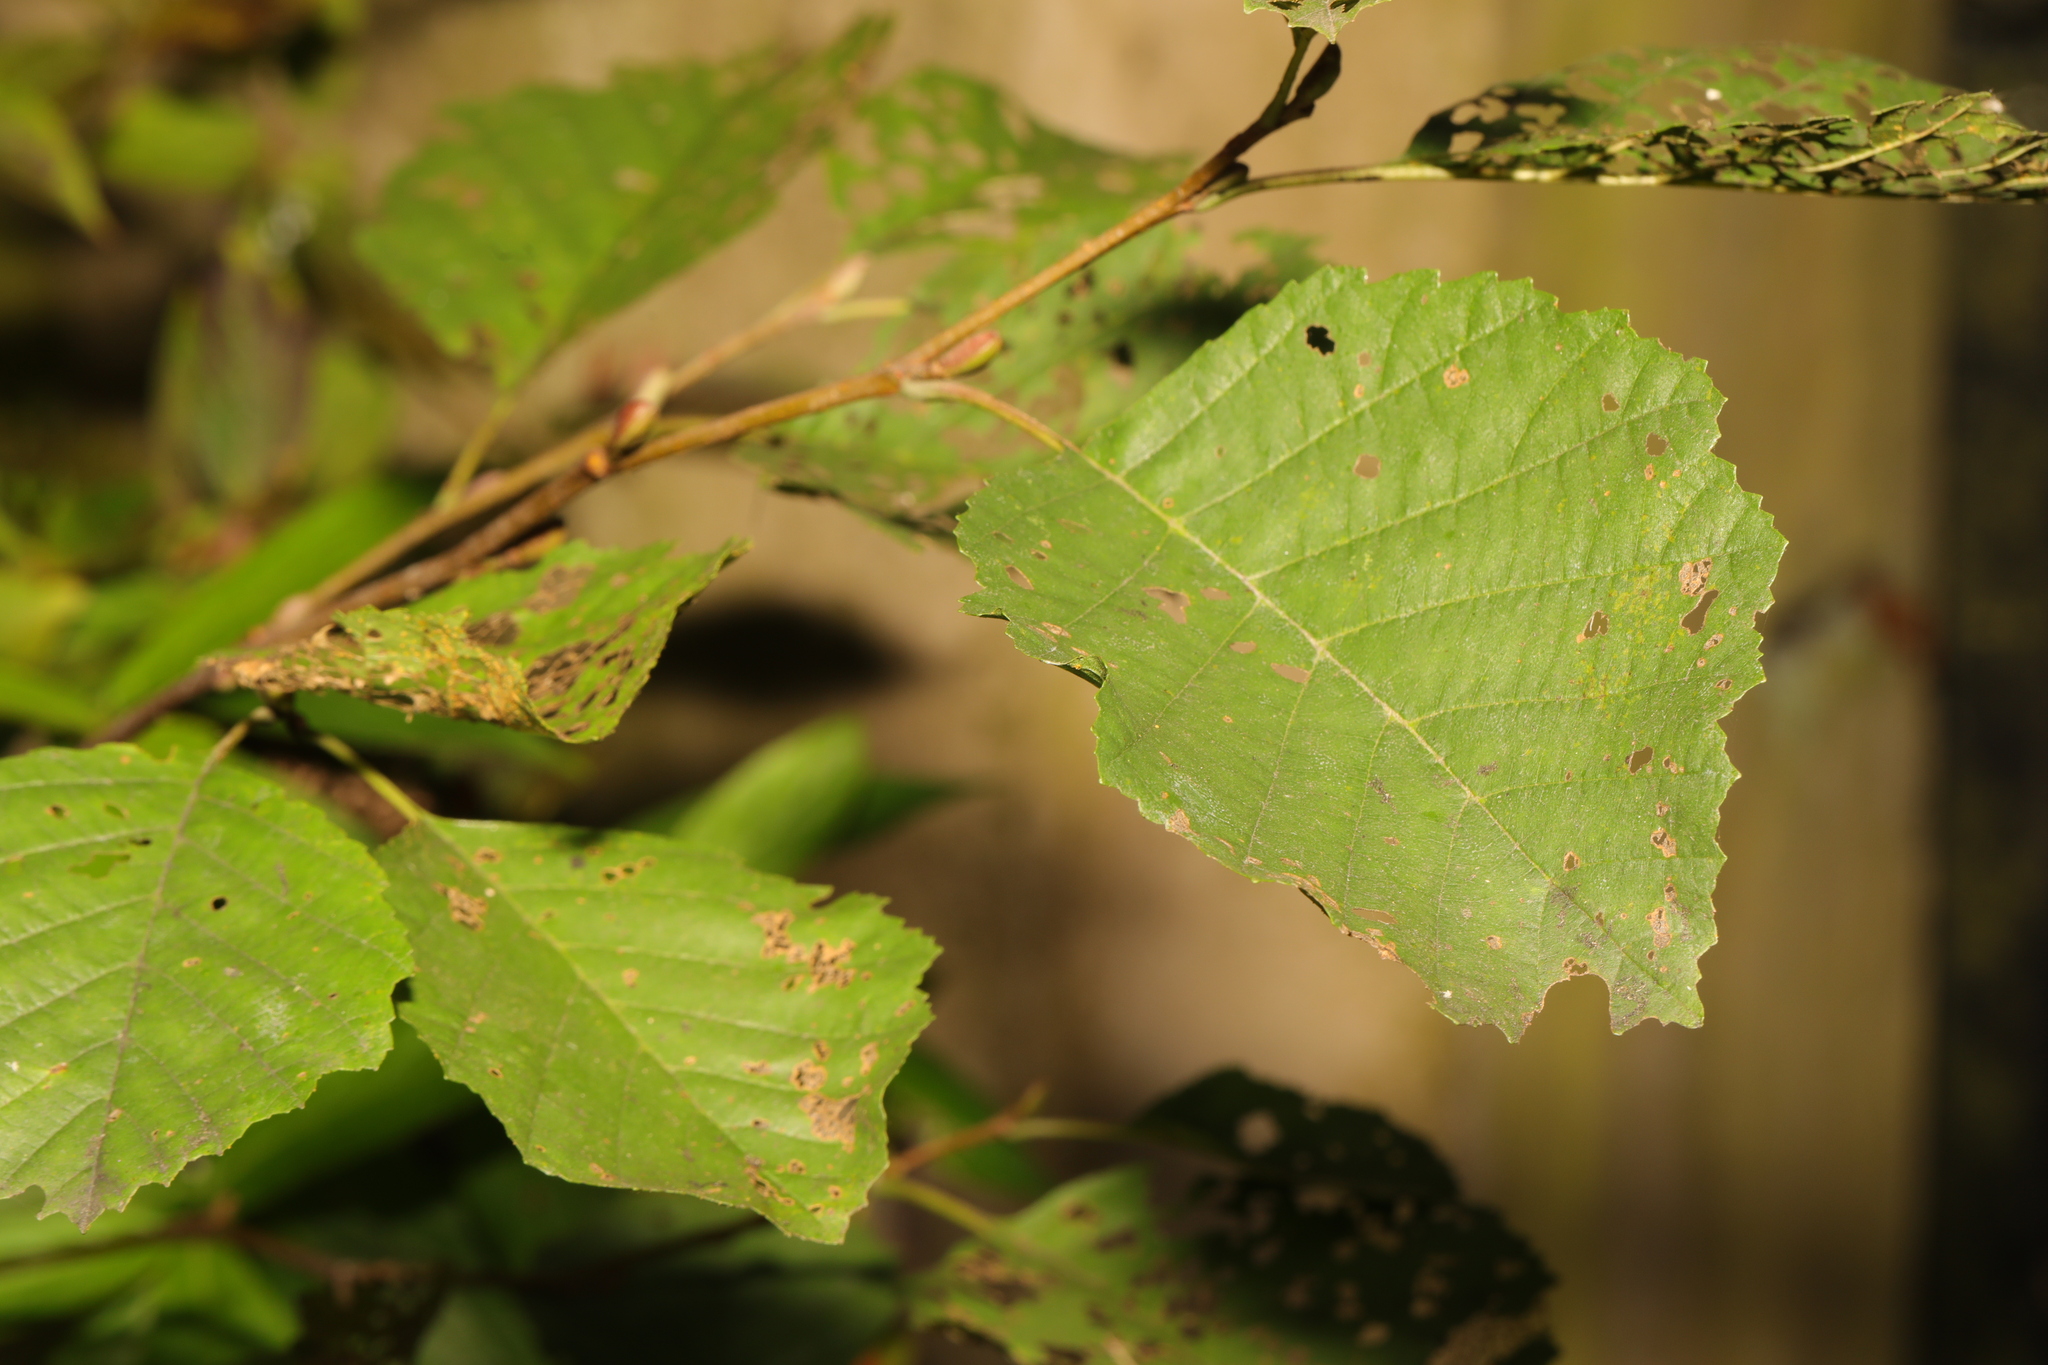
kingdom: Plantae
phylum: Tracheophyta
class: Magnoliopsida
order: Fagales
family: Betulaceae
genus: Alnus
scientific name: Alnus glutinosa
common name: Black alder
